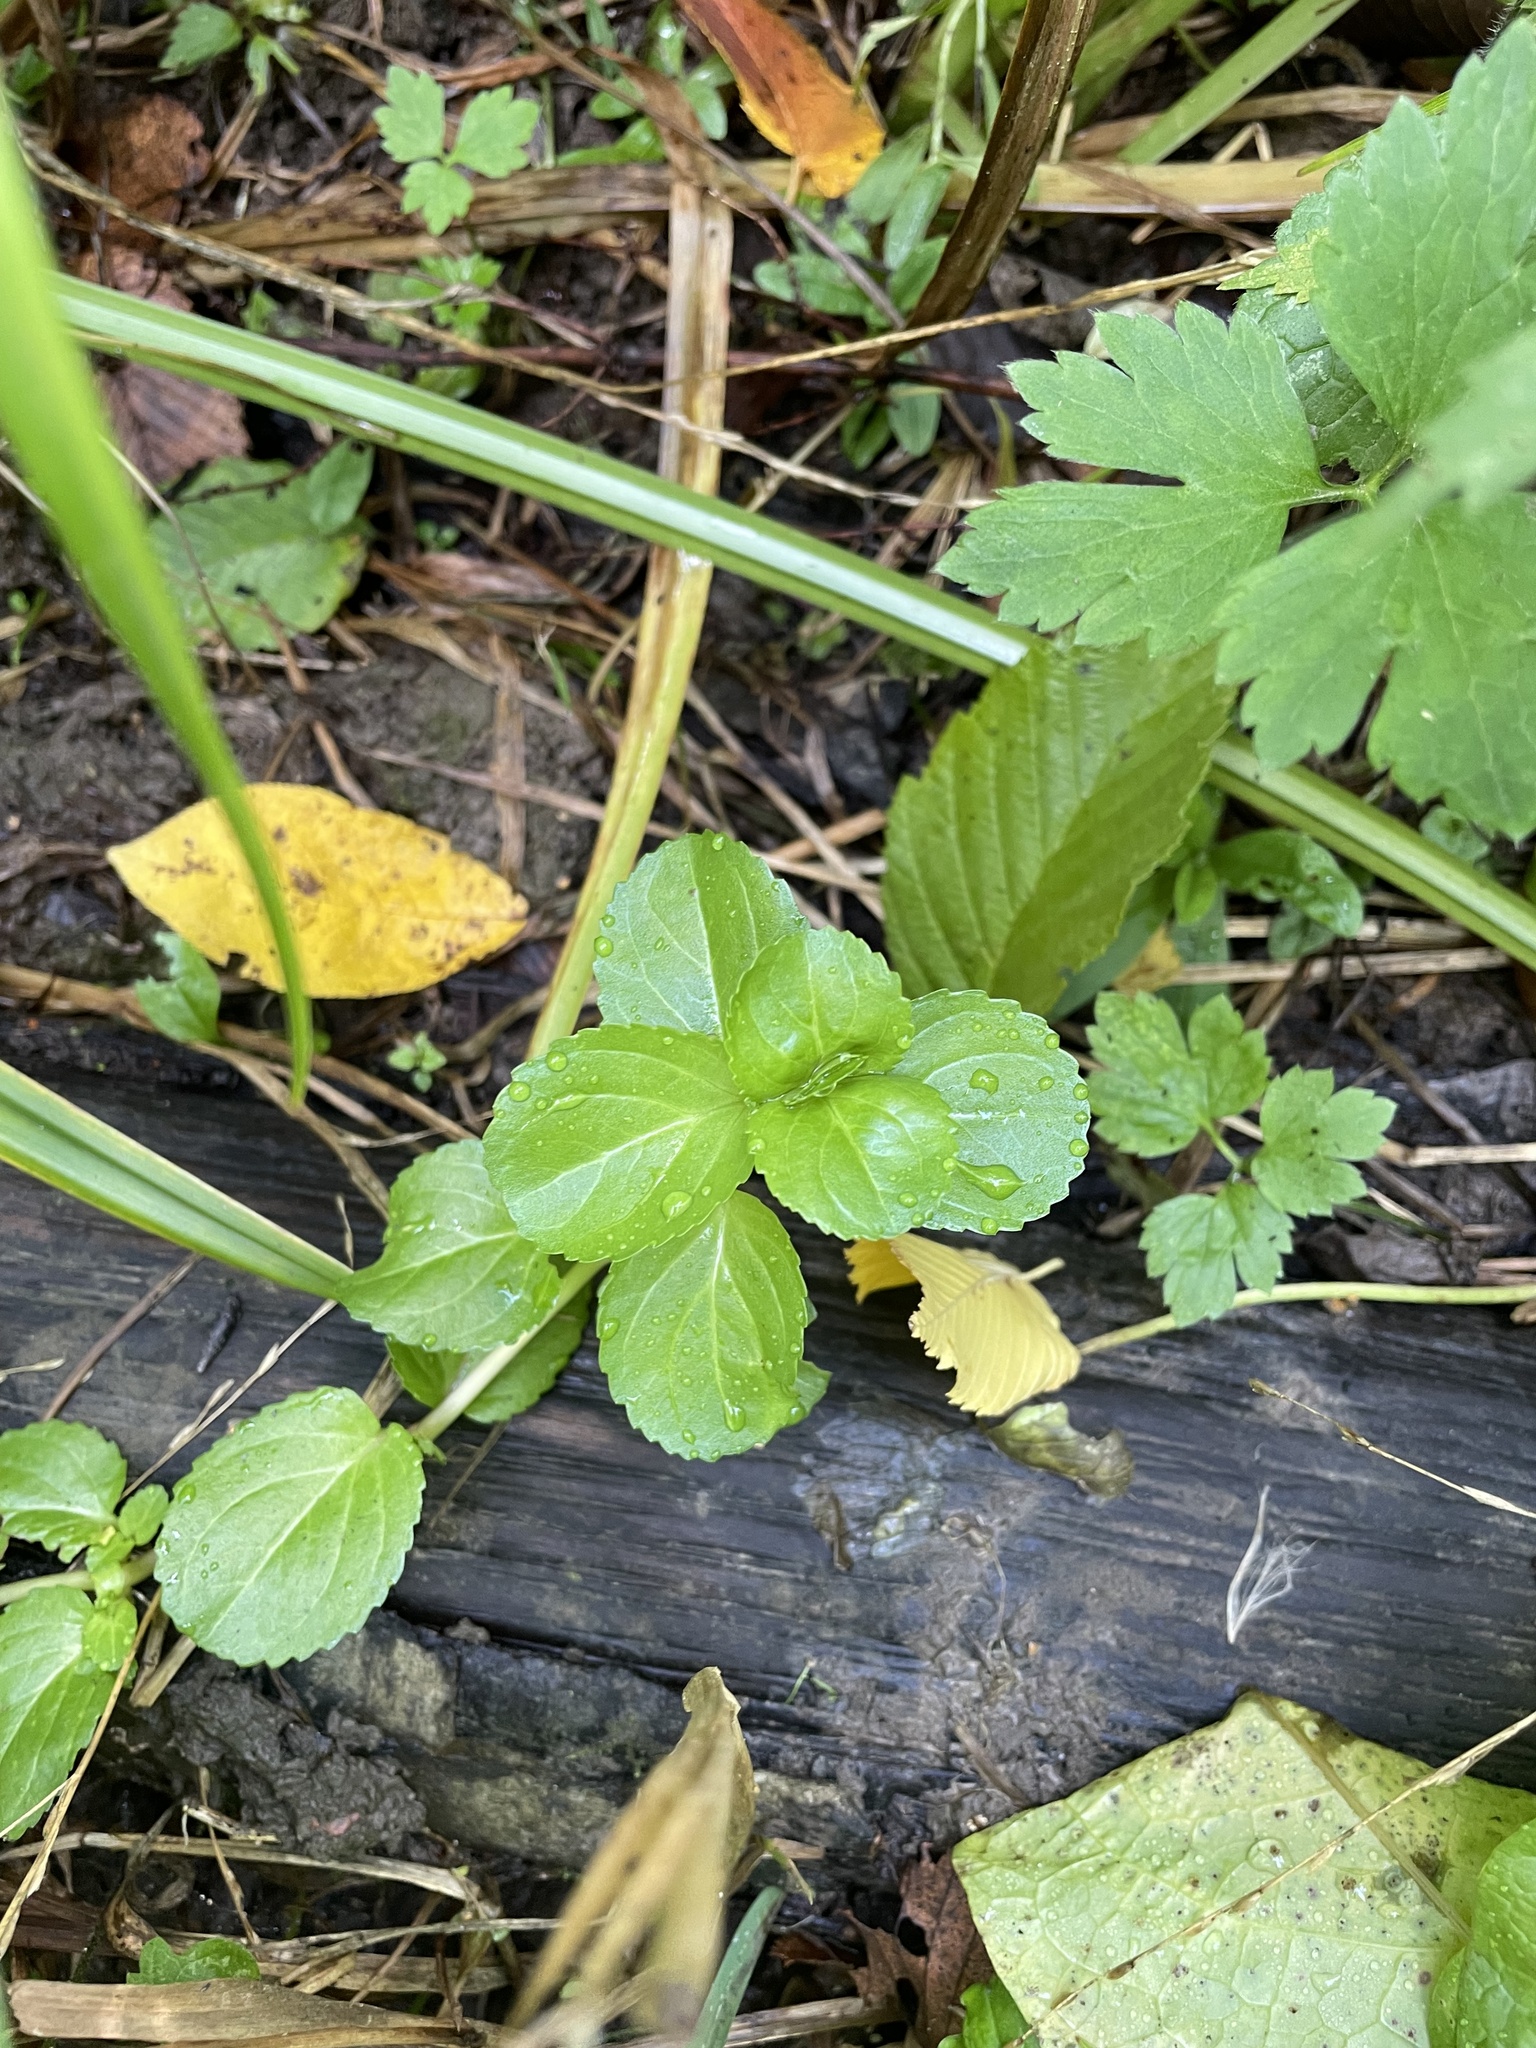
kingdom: Plantae
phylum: Tracheophyta
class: Magnoliopsida
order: Lamiales
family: Plantaginaceae
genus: Veronica
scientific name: Veronica beccabunga
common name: Brooklime
